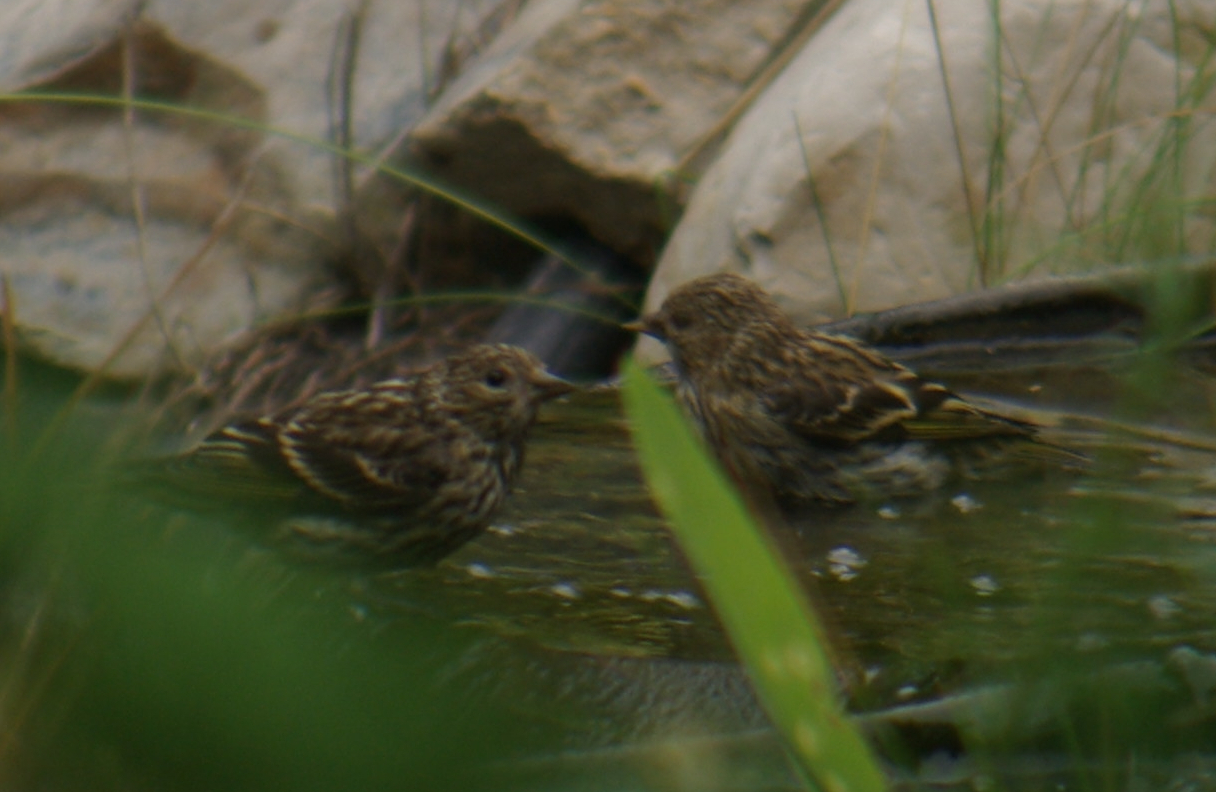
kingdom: Animalia
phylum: Chordata
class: Aves
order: Passeriformes
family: Fringillidae
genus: Spinus
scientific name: Spinus pinus
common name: Pine siskin
